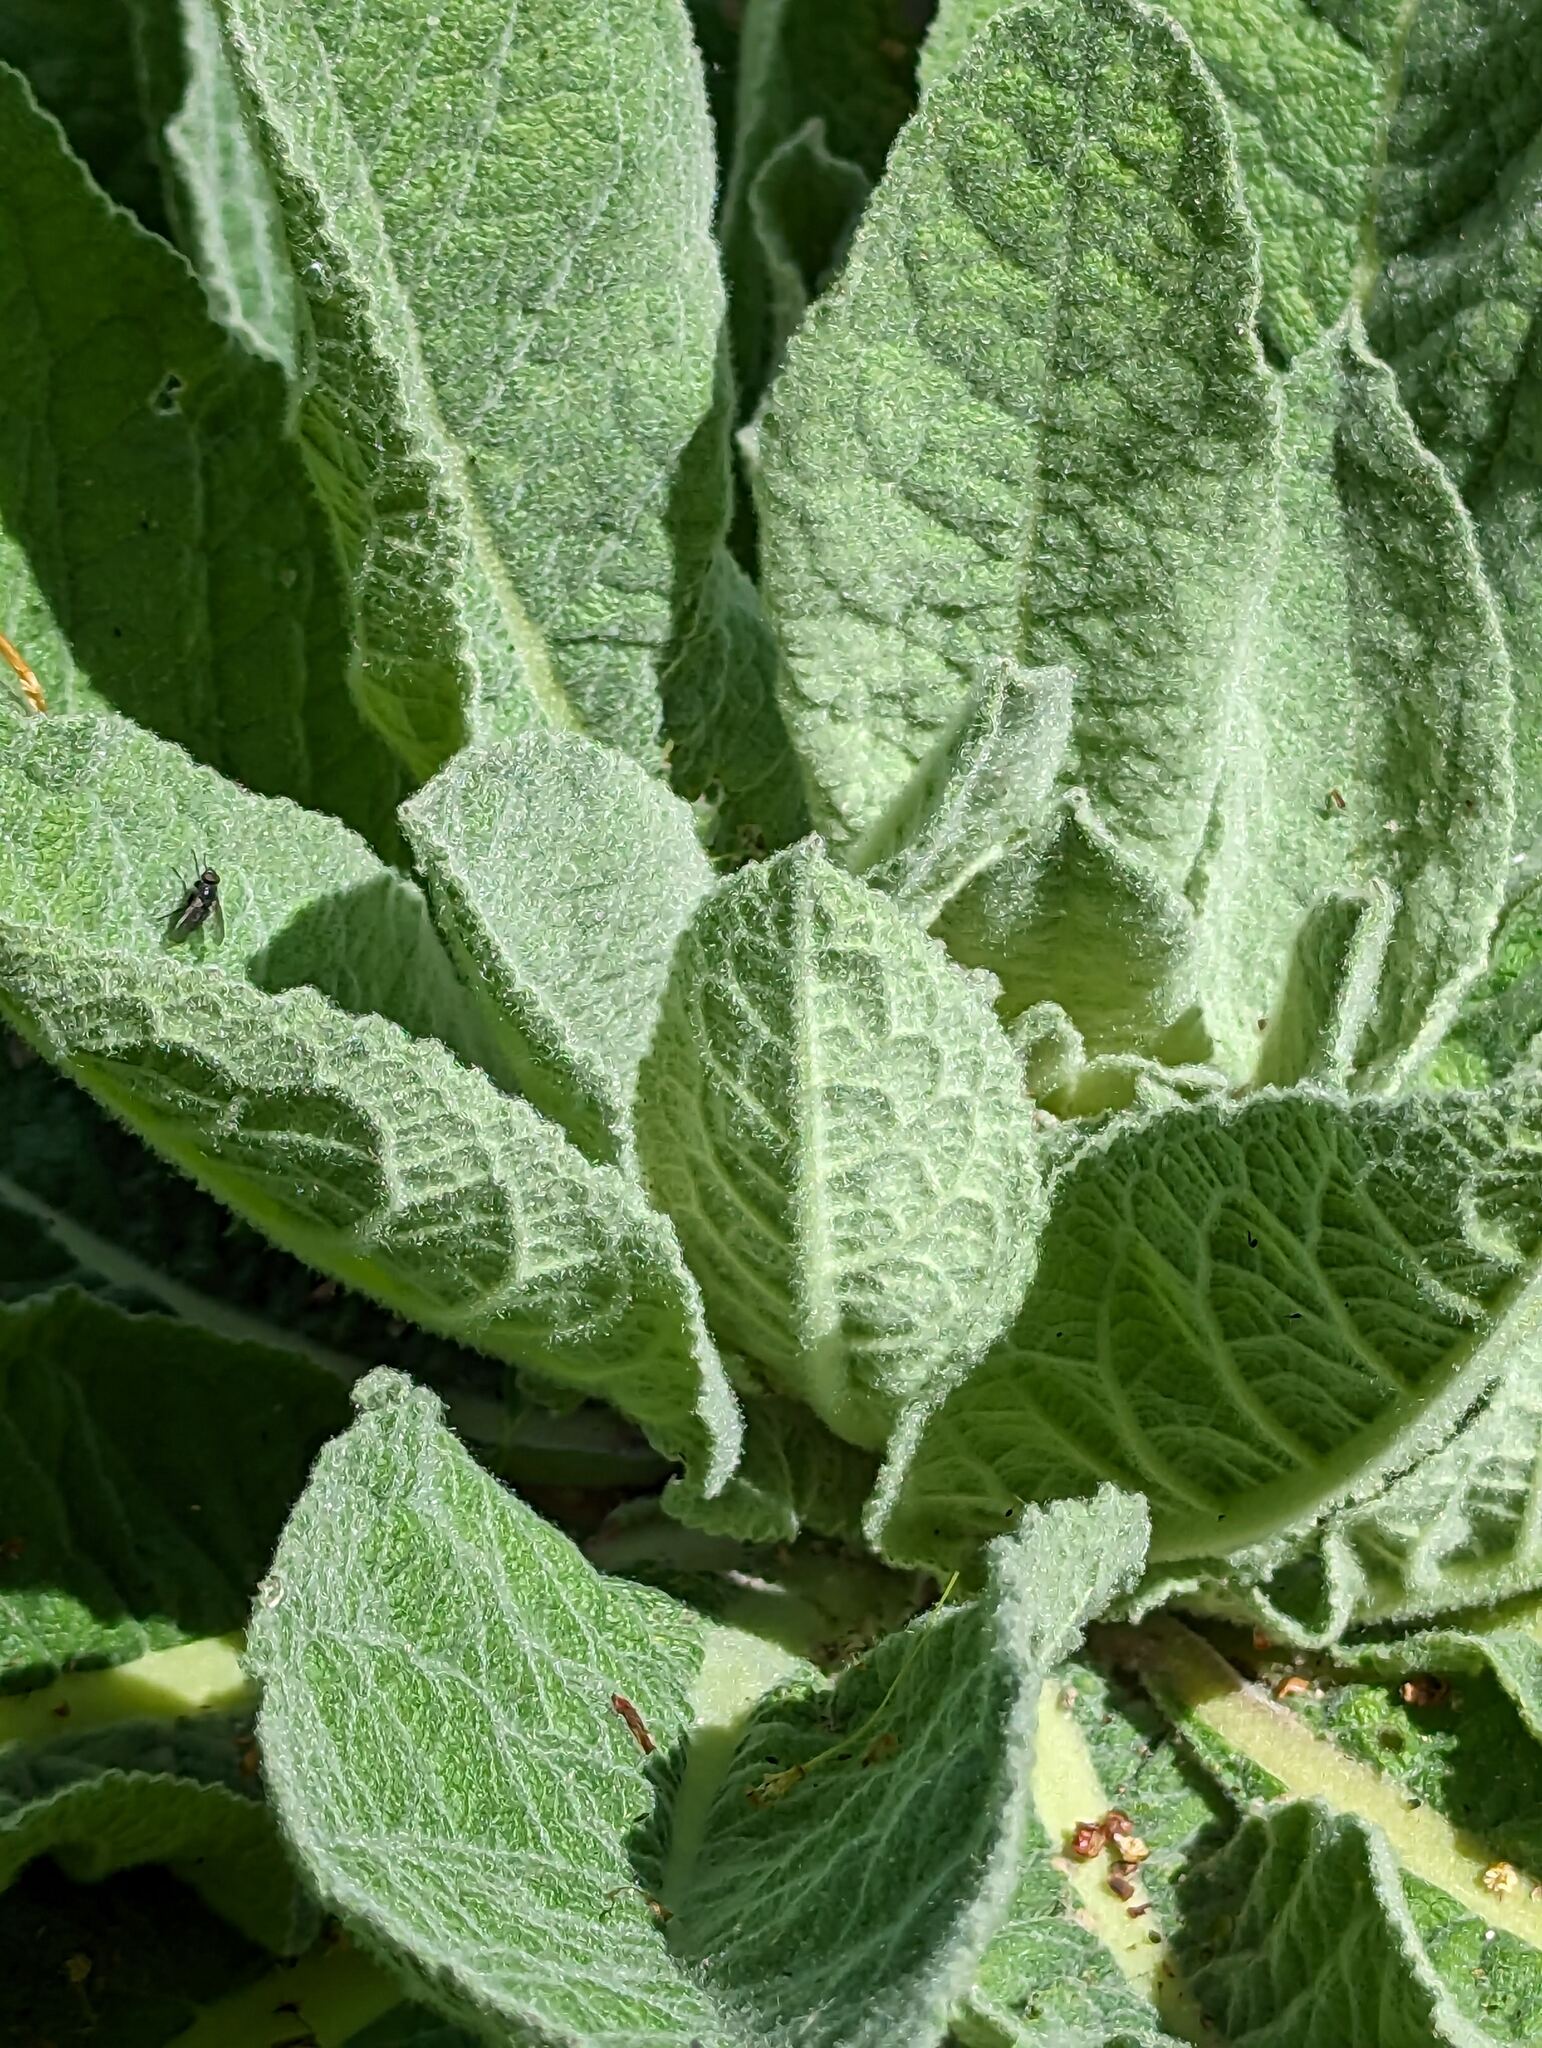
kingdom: Plantae
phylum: Tracheophyta
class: Magnoliopsida
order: Lamiales
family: Scrophulariaceae
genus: Verbascum
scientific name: Verbascum thapsus
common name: Common mullein
